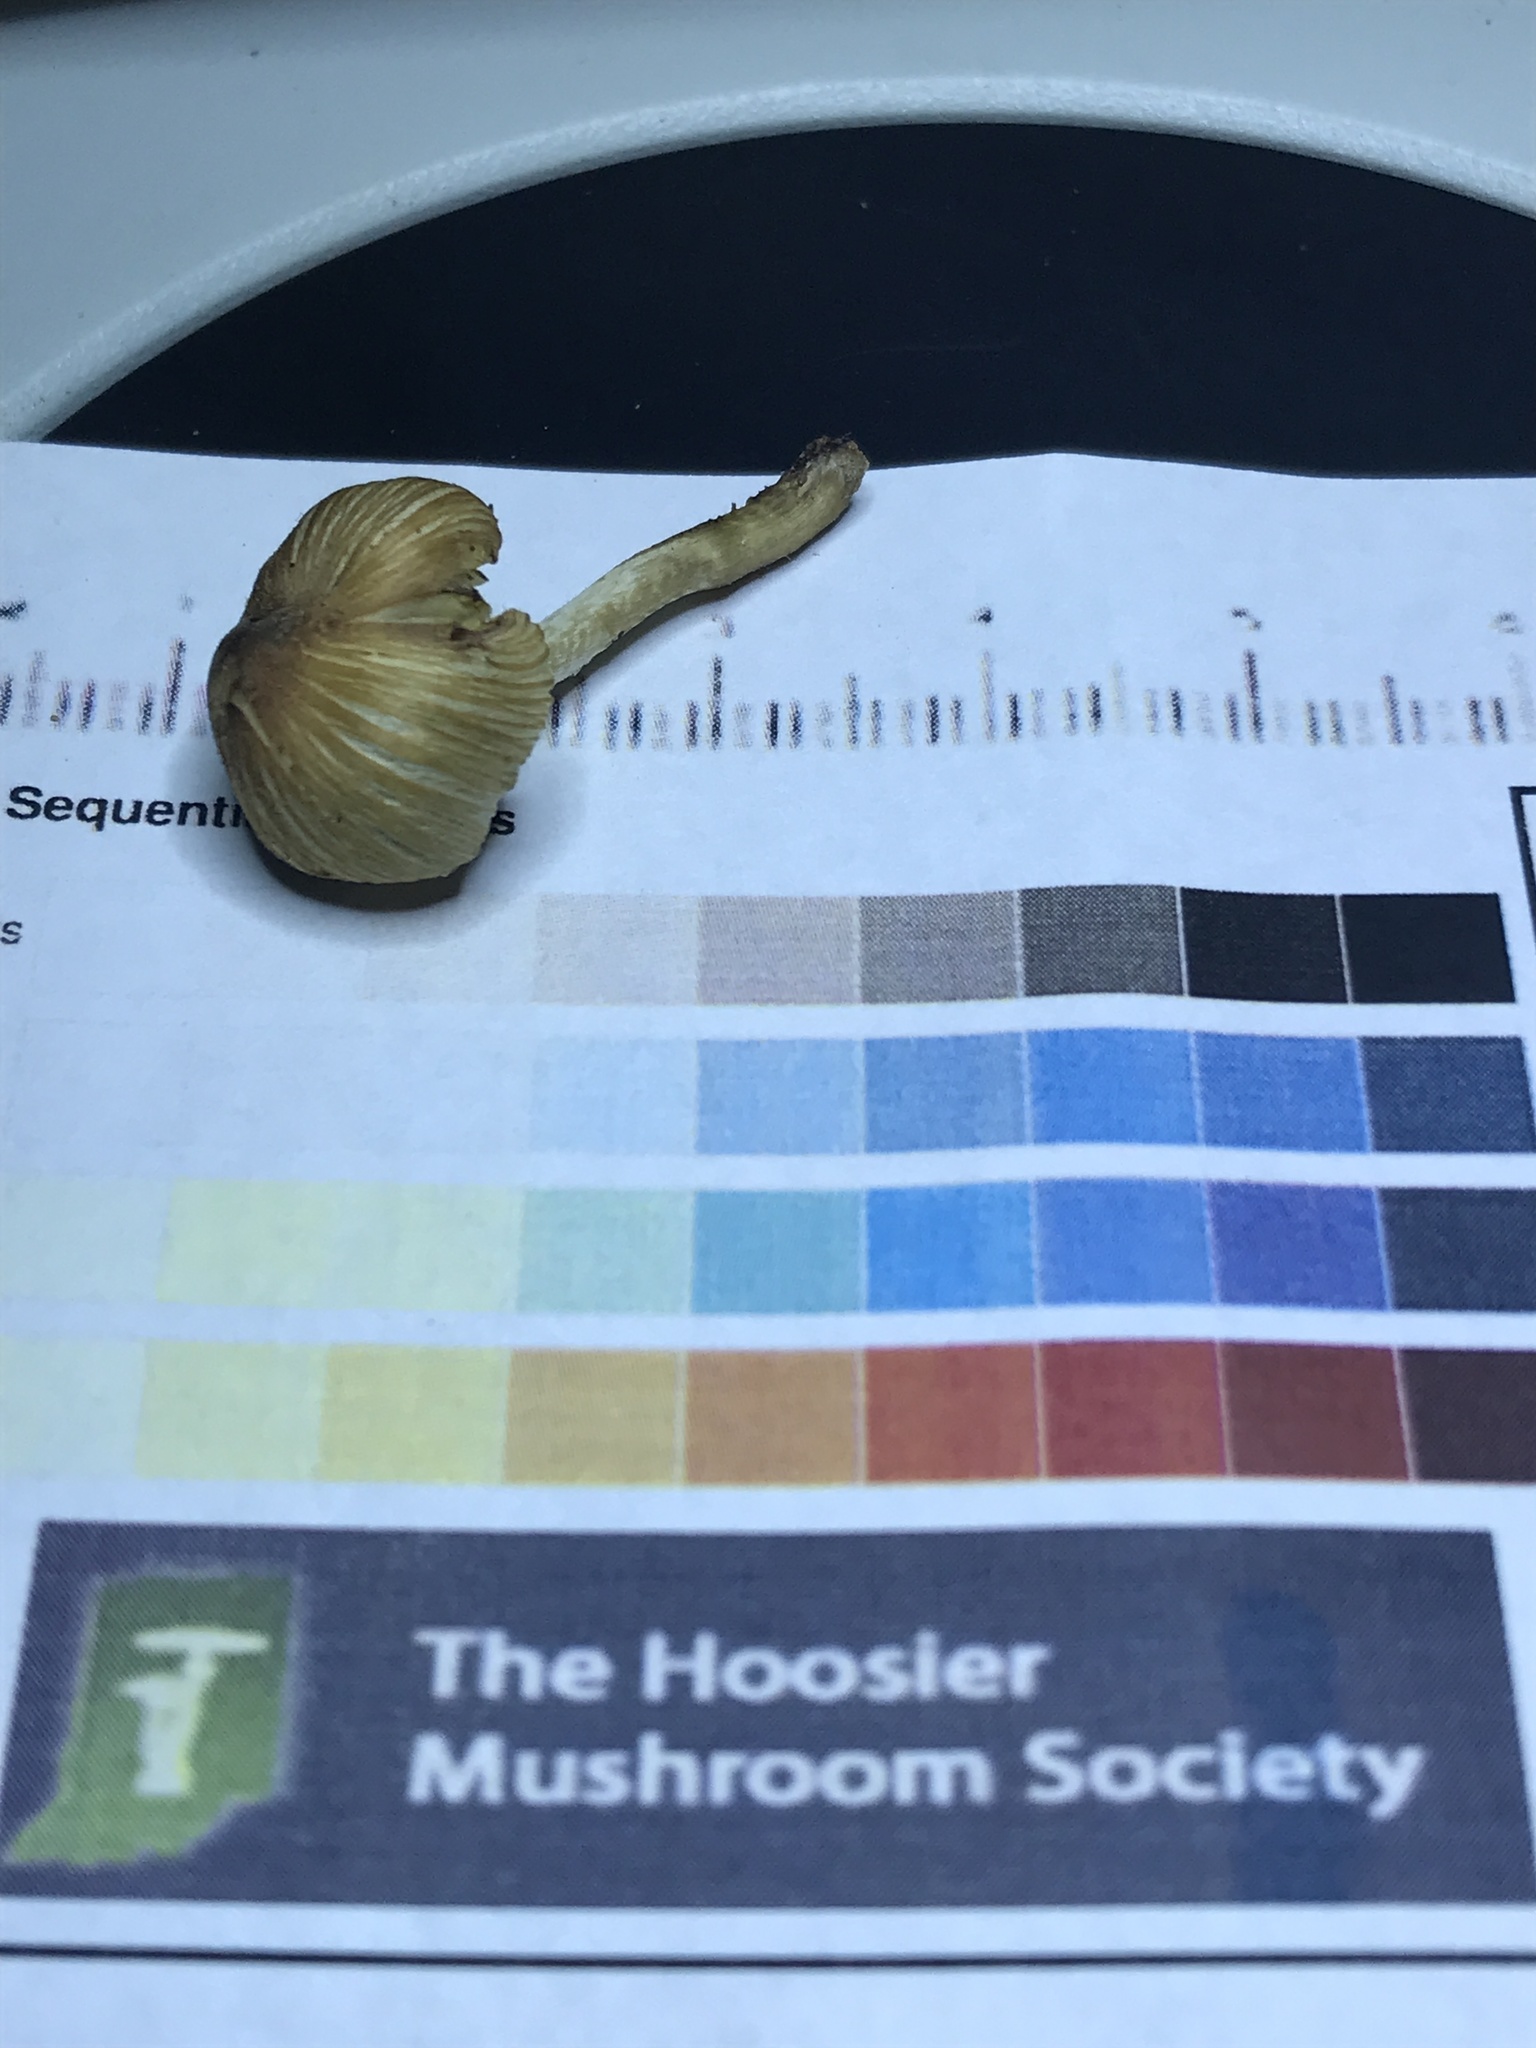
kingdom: Fungi
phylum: Basidiomycota
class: Agaricomycetes
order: Agaricales
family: Inocybaceae
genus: Pseudosperma
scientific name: Pseudosperma friabile
